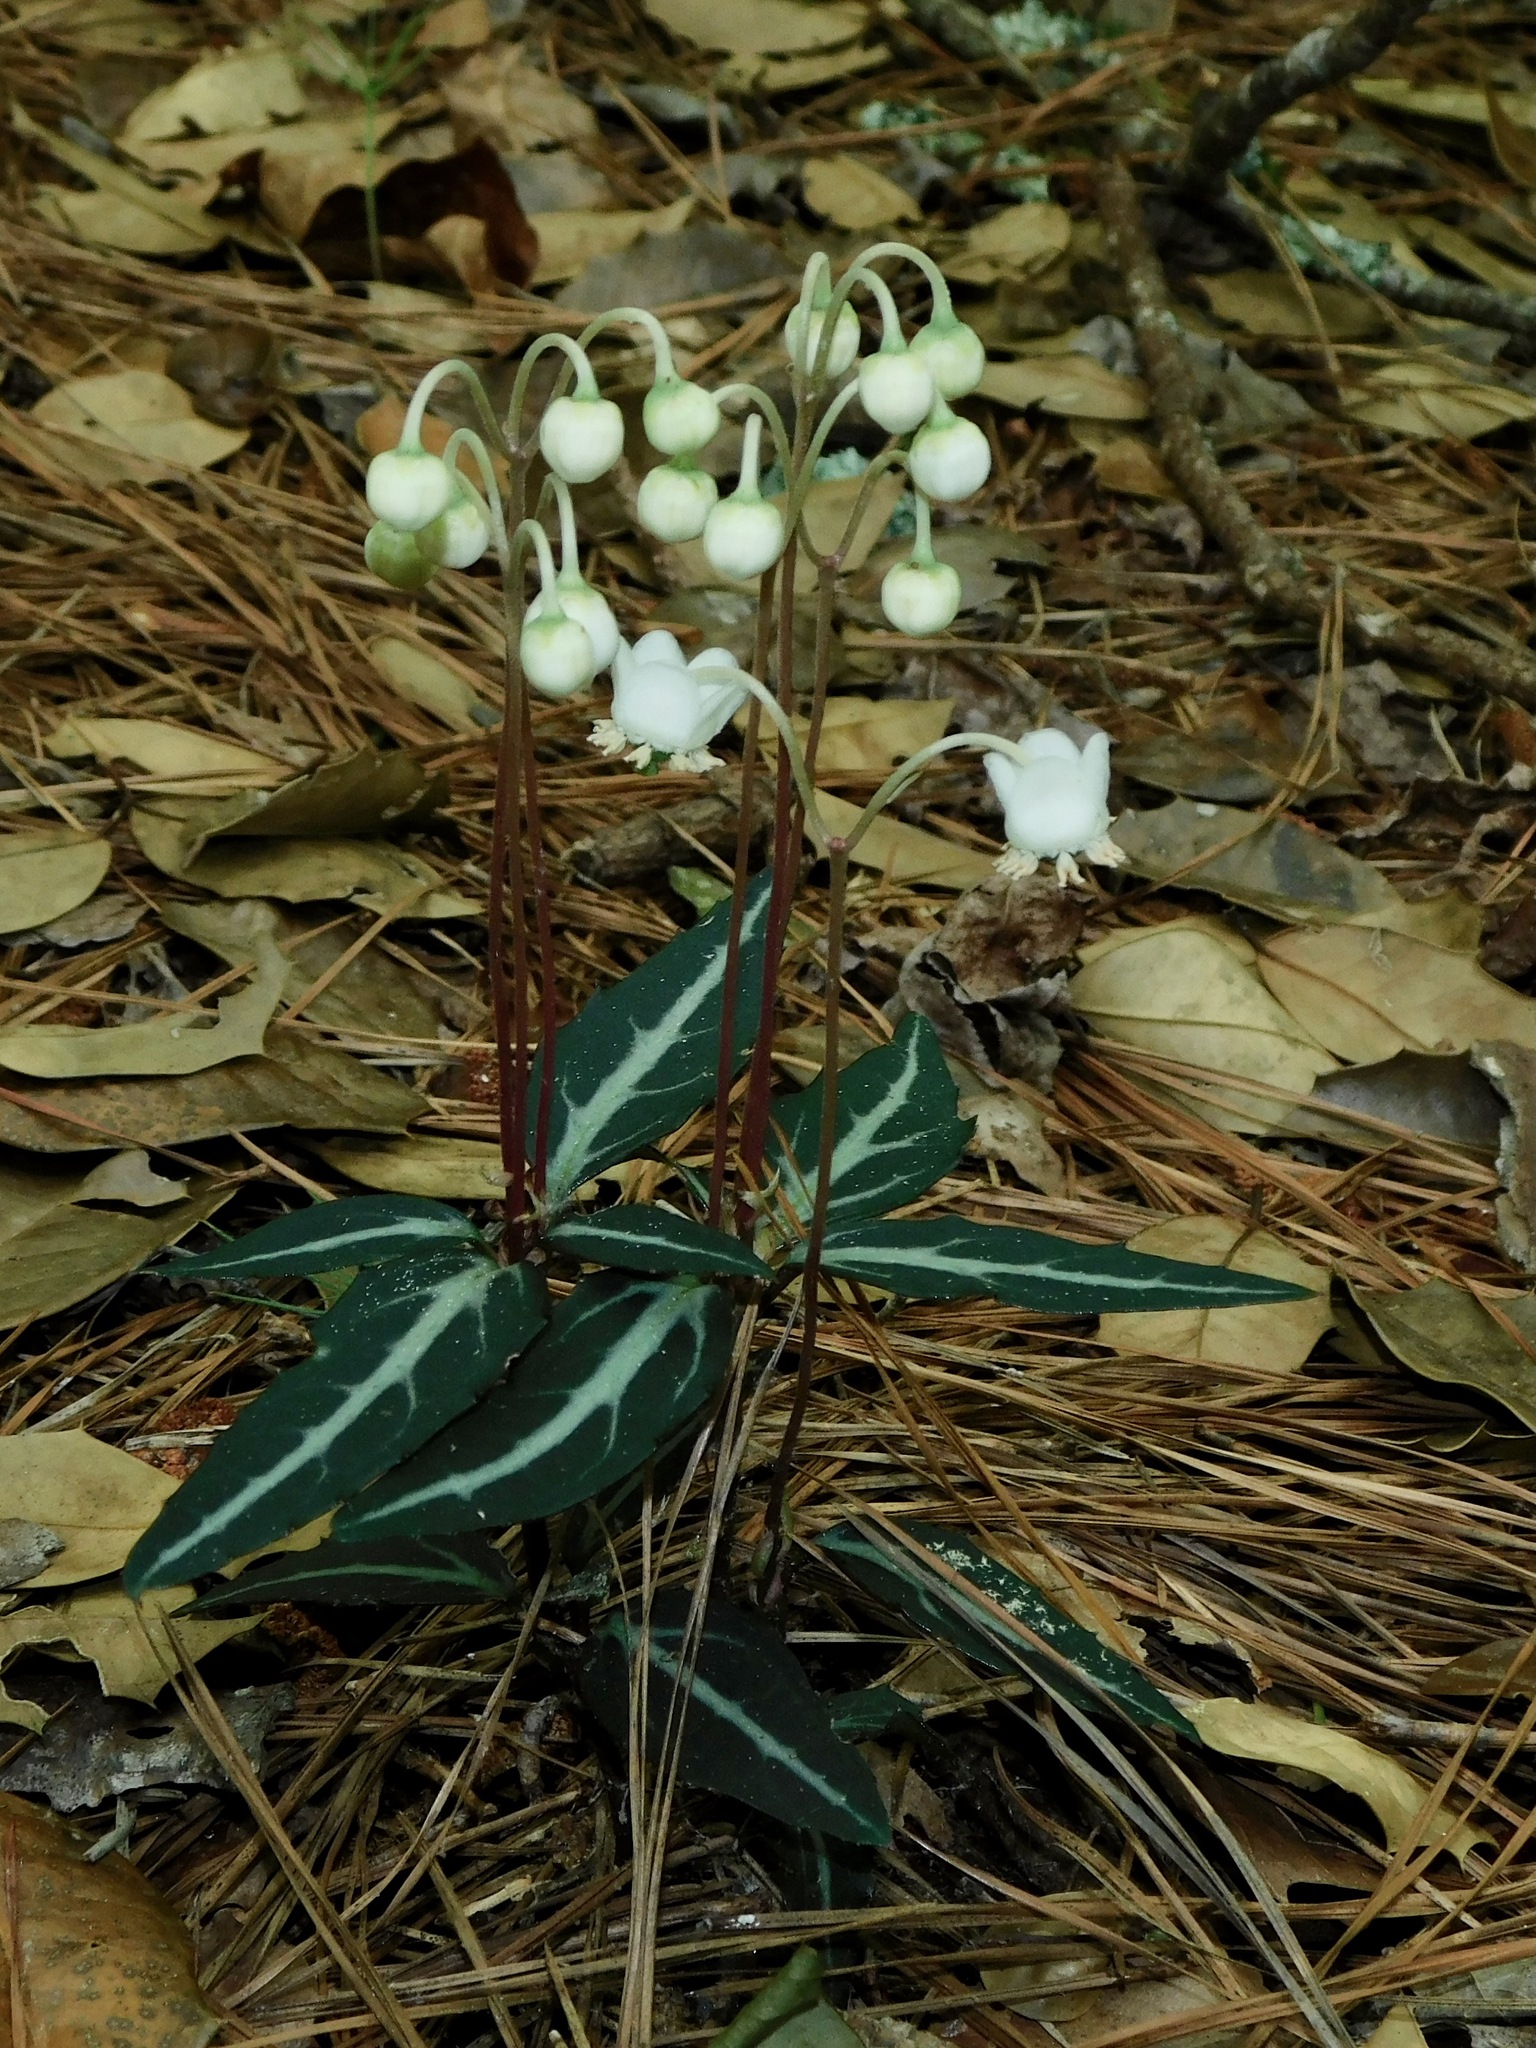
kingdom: Plantae
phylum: Tracheophyta
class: Magnoliopsida
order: Ericales
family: Ericaceae
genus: Chimaphila
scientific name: Chimaphila maculata
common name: Spotted pipsissewa
